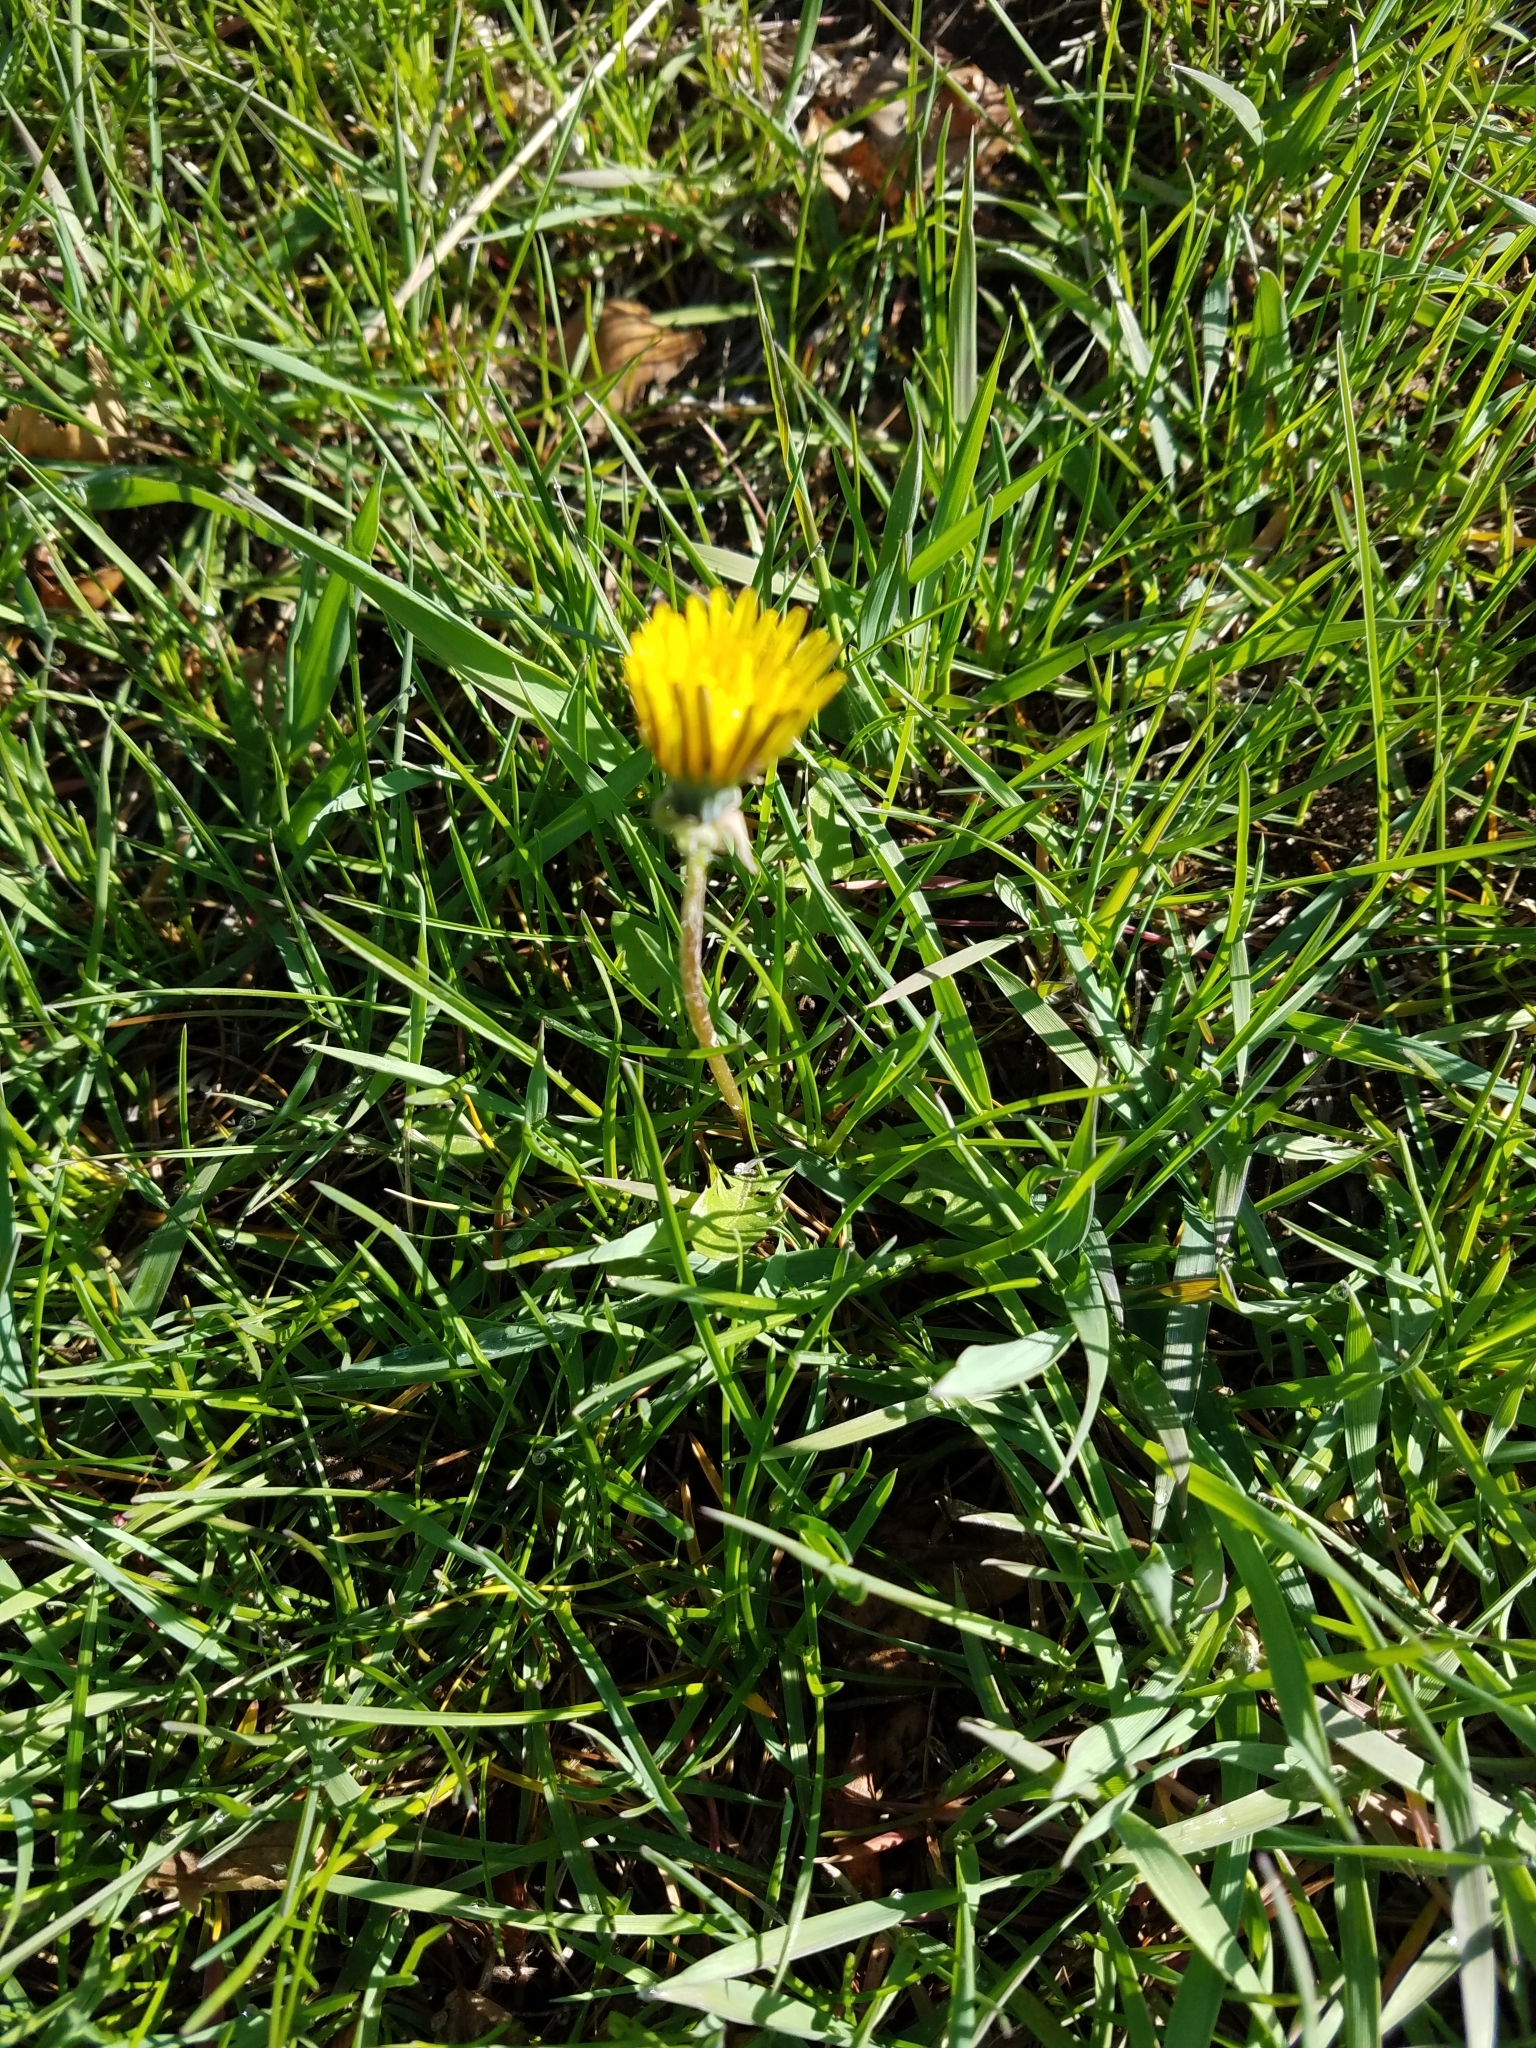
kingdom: Plantae
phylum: Tracheophyta
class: Magnoliopsida
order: Asterales
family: Asteraceae
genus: Taraxacum
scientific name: Taraxacum officinale
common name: Common dandelion
